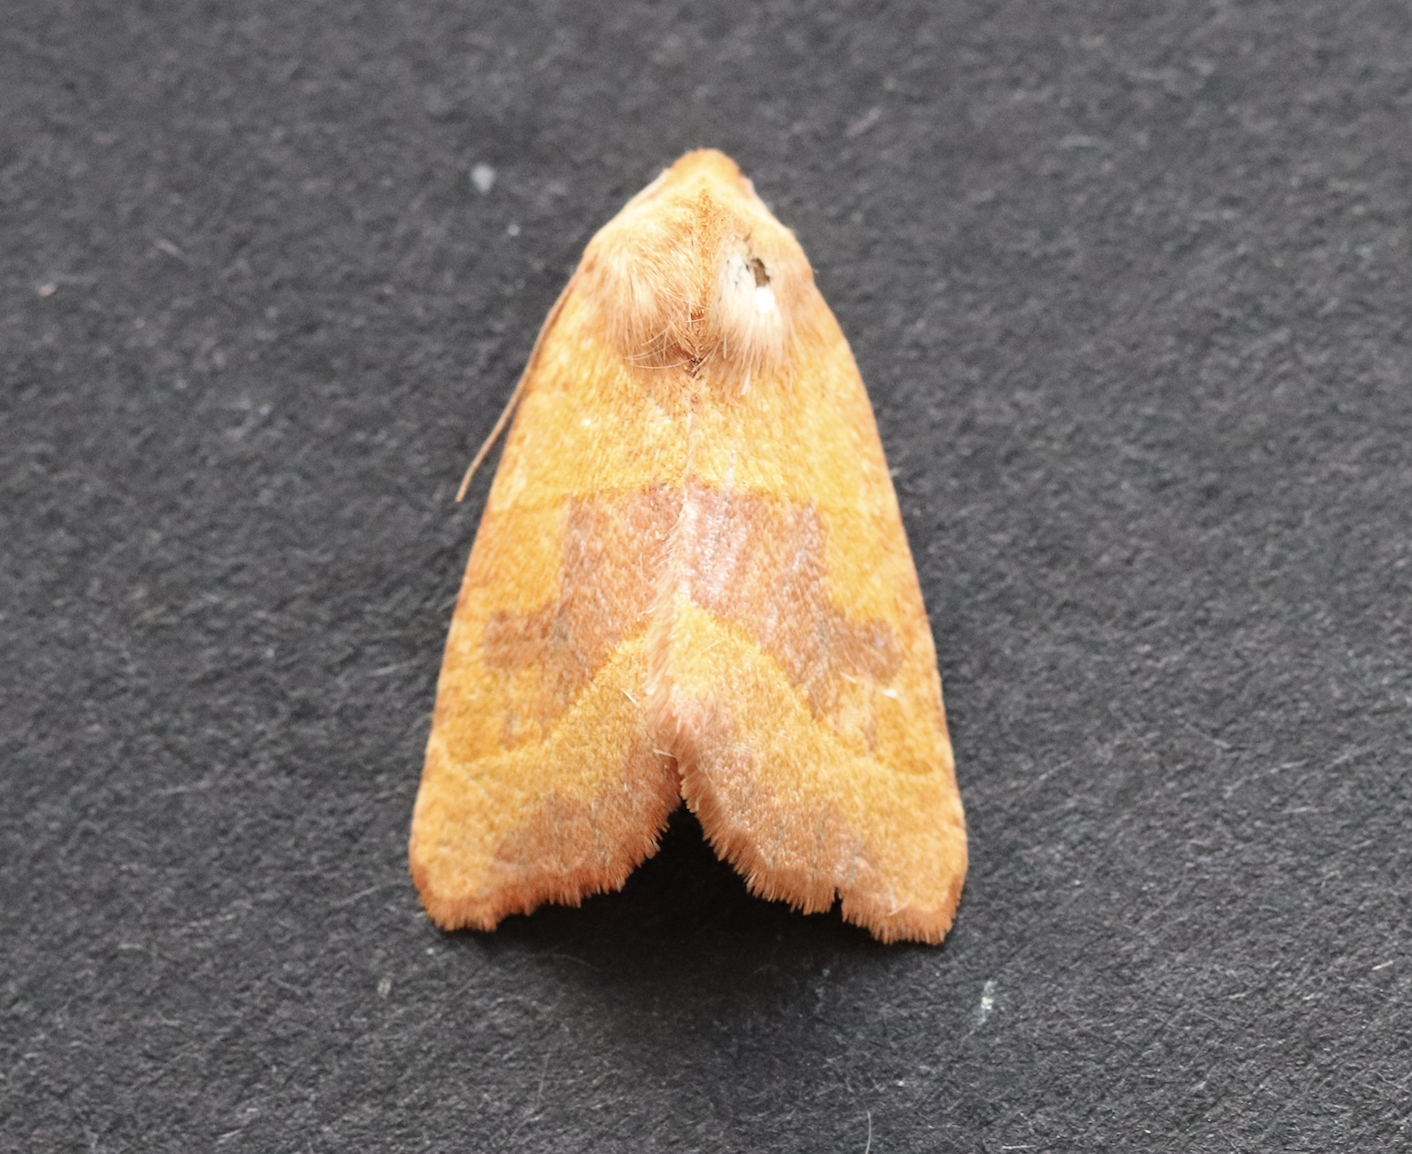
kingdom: Animalia
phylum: Arthropoda
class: Insecta
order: Lepidoptera
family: Noctuidae
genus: Atethmia
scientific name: Atethmia centrago
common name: Centre-barred sallow
